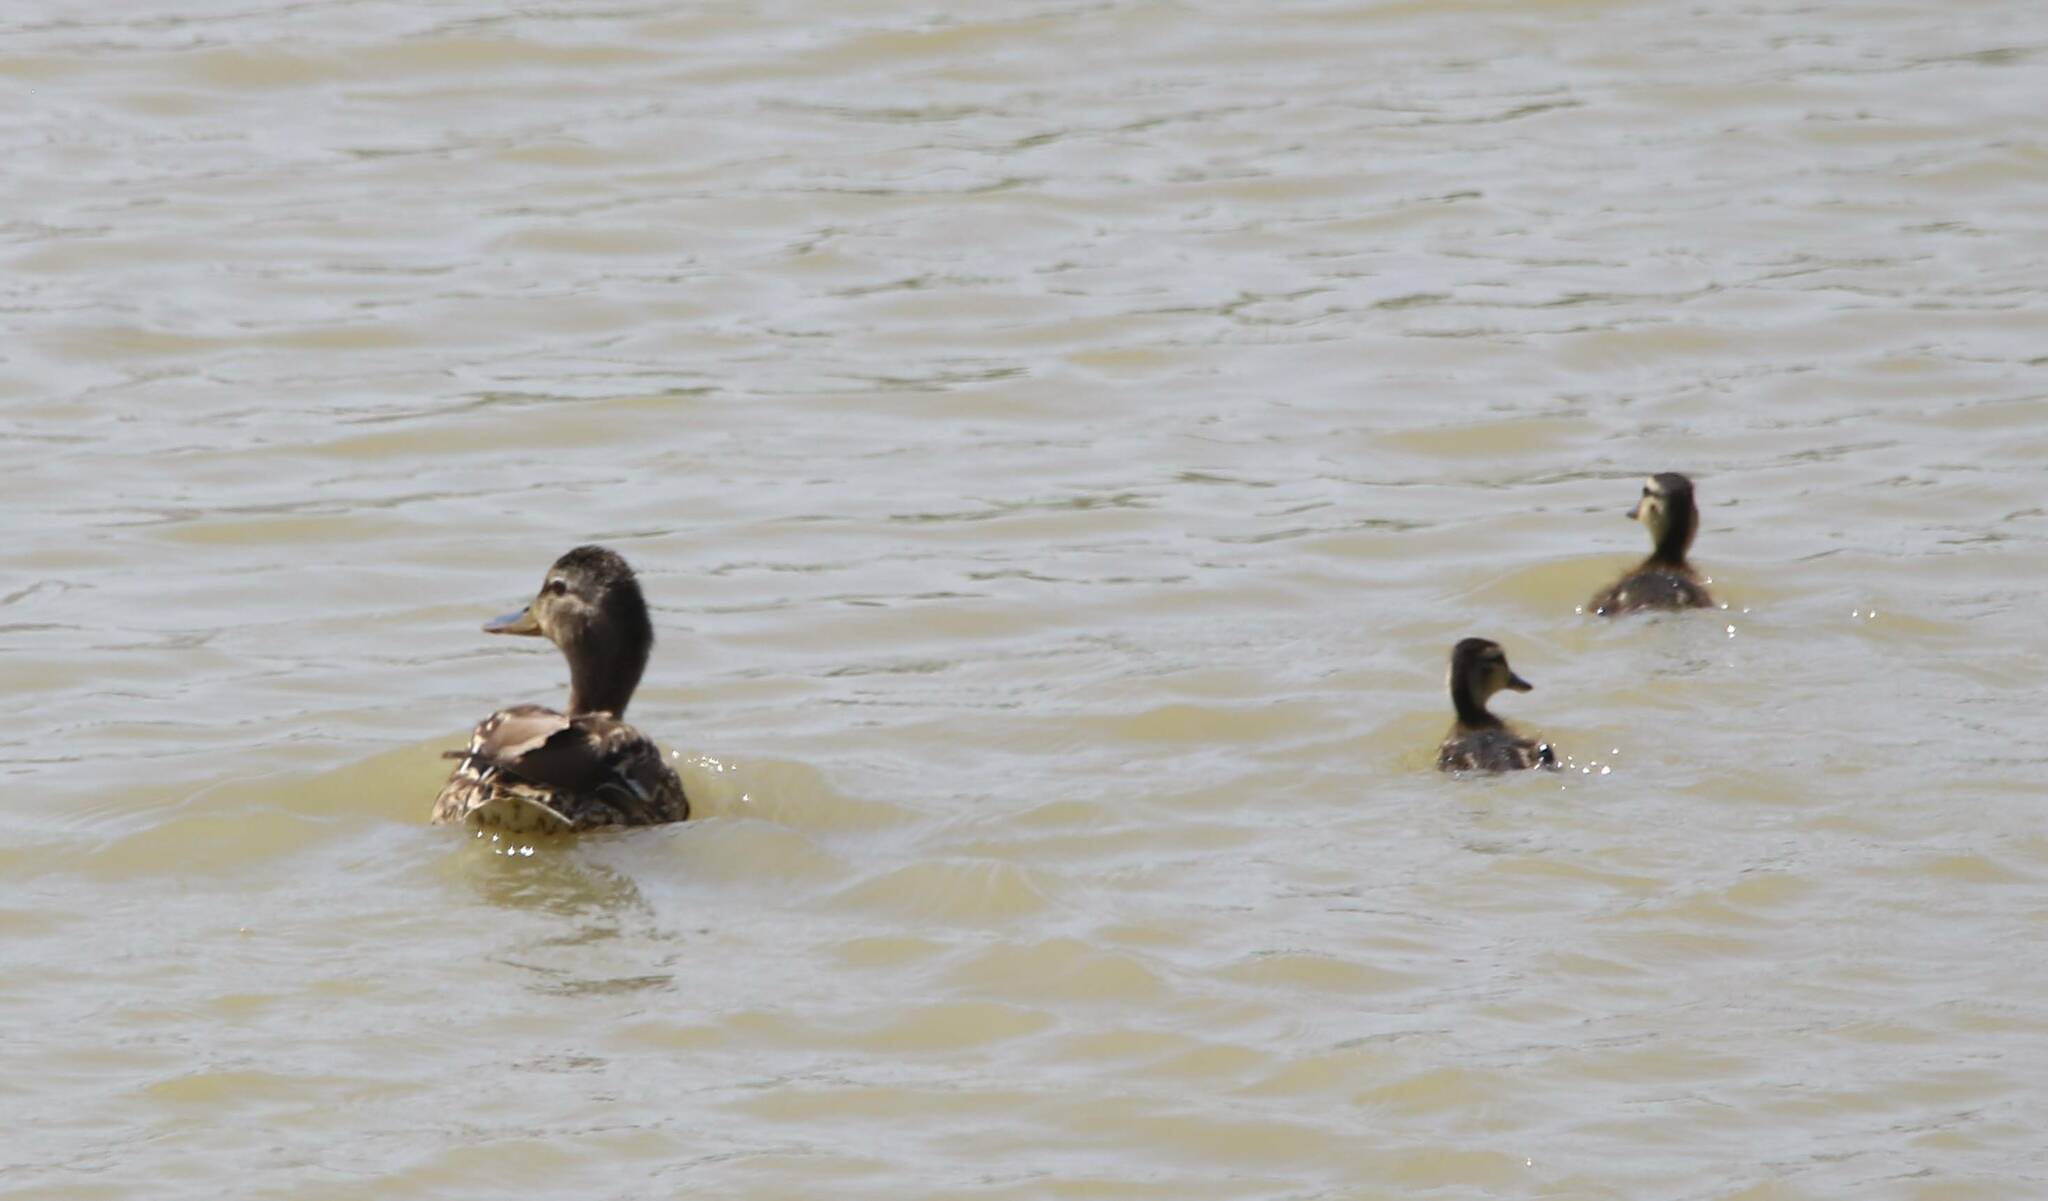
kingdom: Animalia
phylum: Chordata
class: Aves
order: Anseriformes
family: Anatidae
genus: Anas
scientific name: Anas platyrhynchos
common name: Mallard
